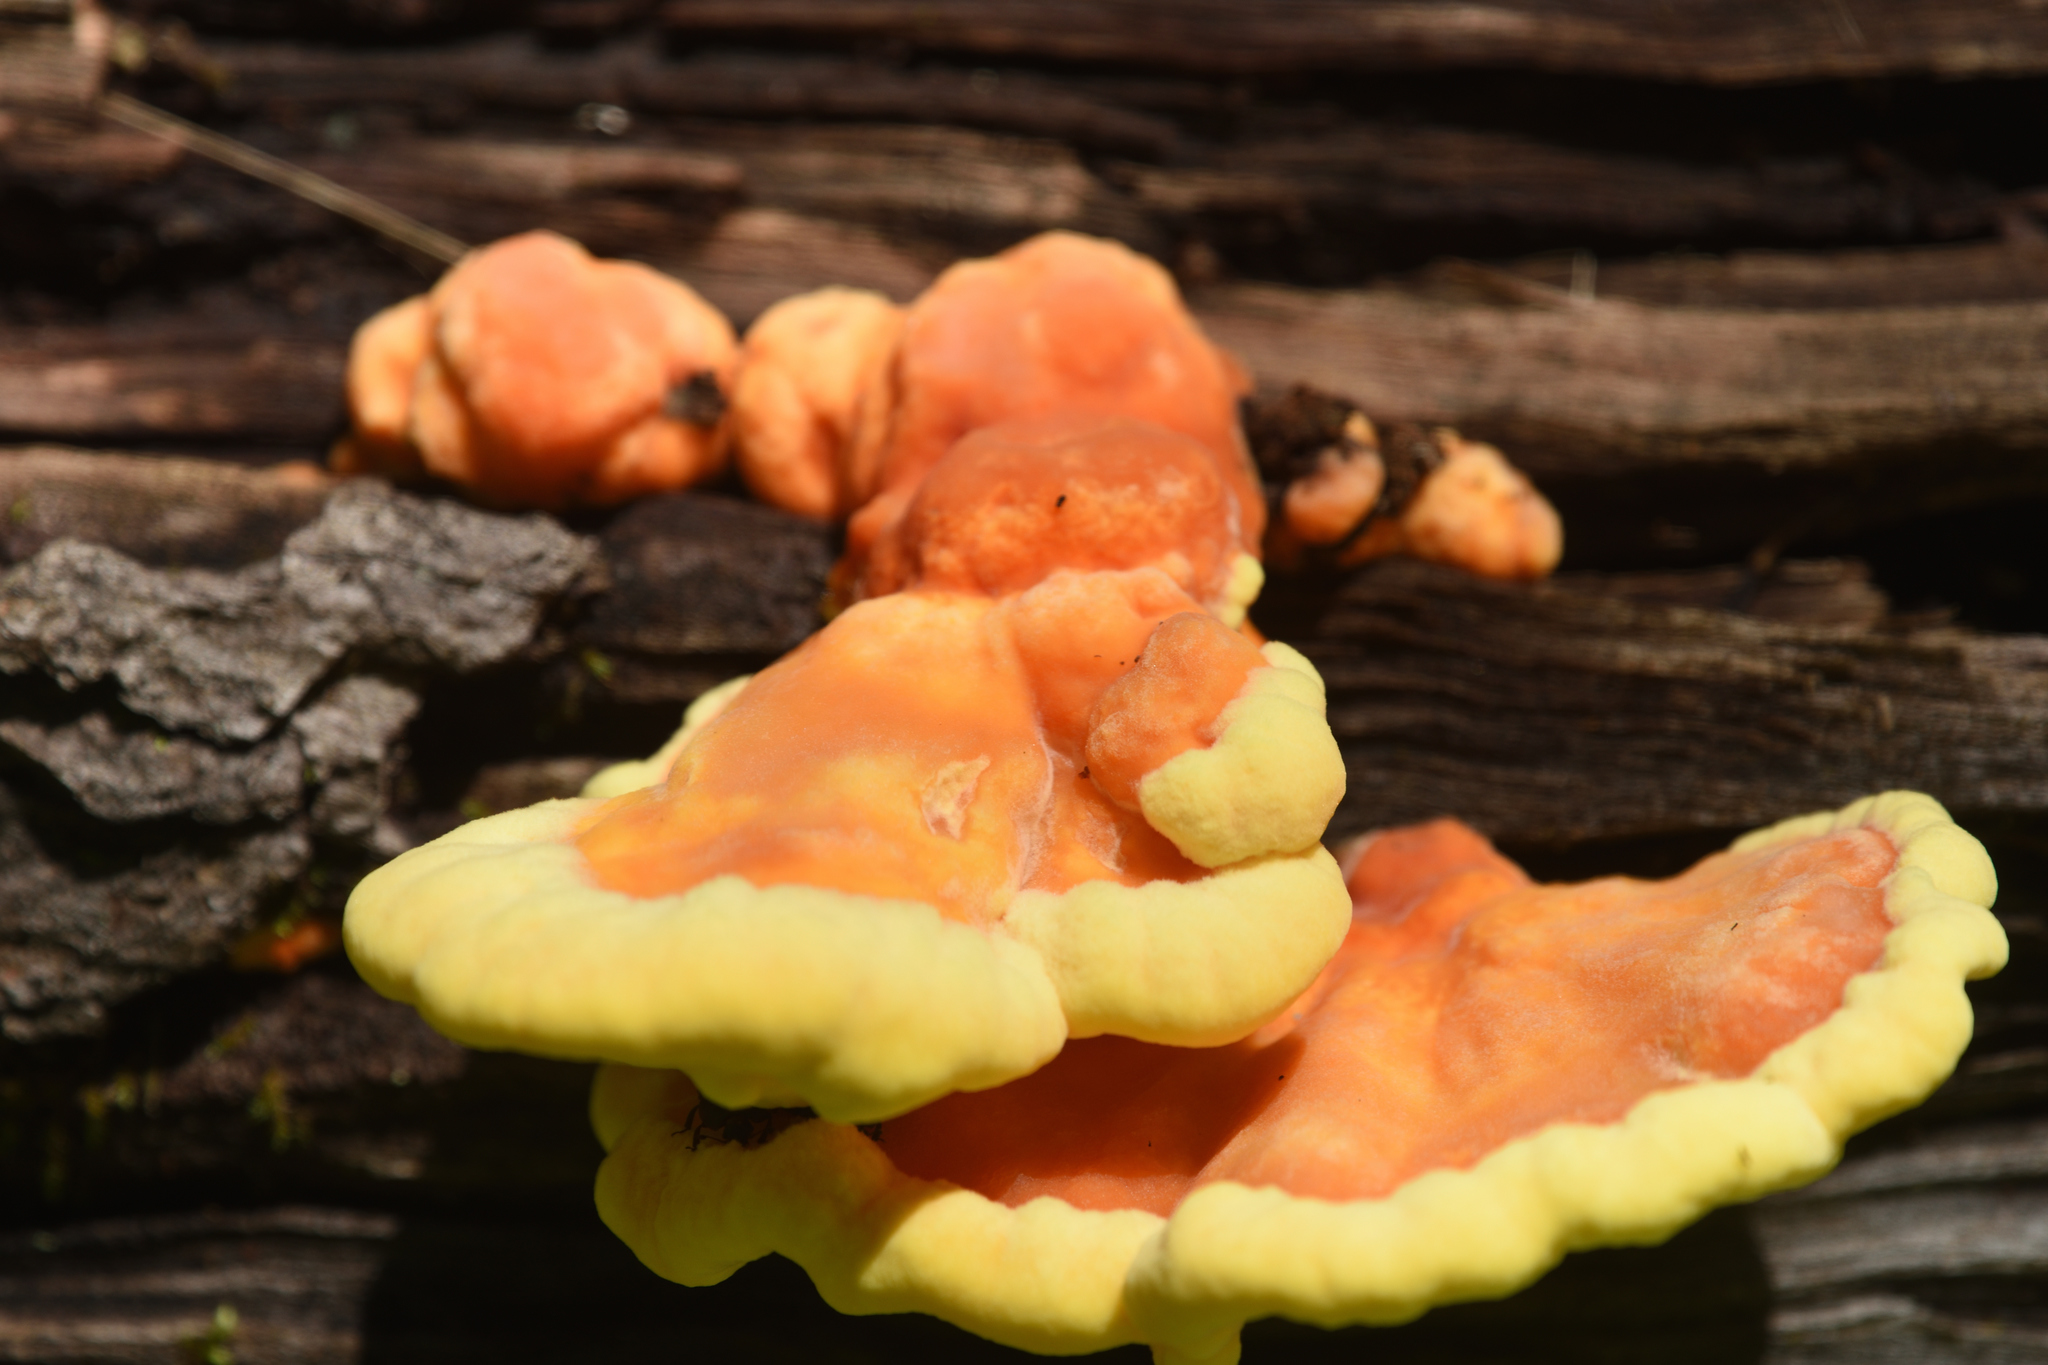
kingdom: Fungi
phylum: Basidiomycota
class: Agaricomycetes
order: Polyporales
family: Laetiporaceae
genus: Laetiporus
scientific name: Laetiporus sulphureus
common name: Chicken of the woods
